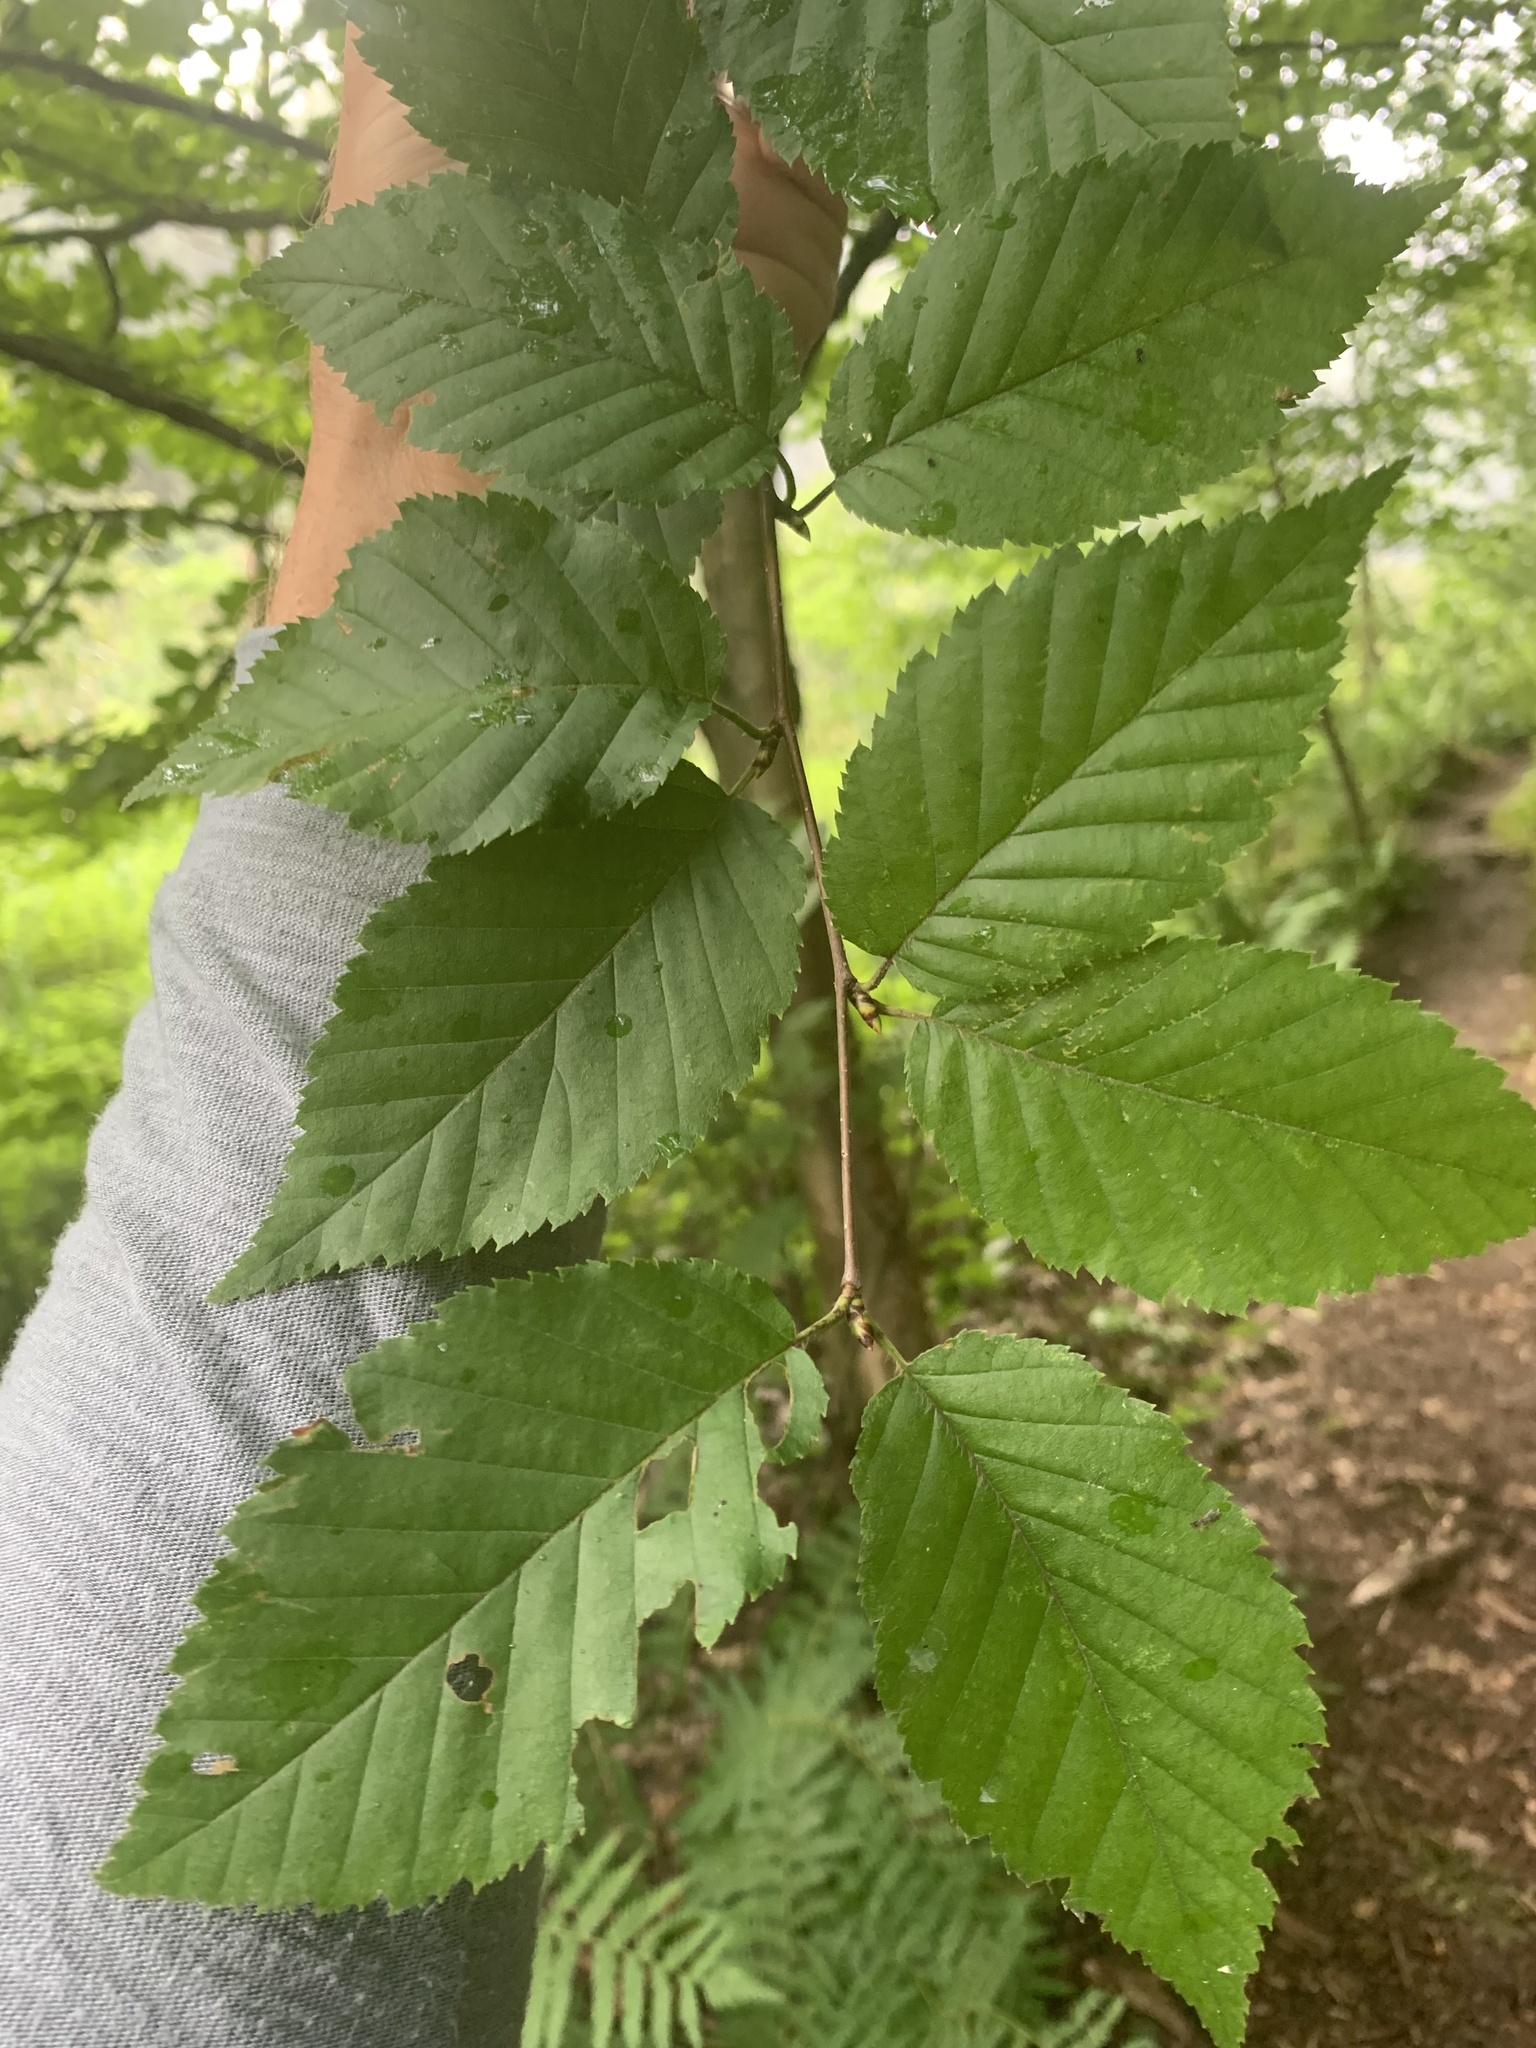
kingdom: Plantae
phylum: Tracheophyta
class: Magnoliopsida
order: Fagales
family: Betulaceae
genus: Betula
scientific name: Betula alleghaniensis
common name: Yellow birch
